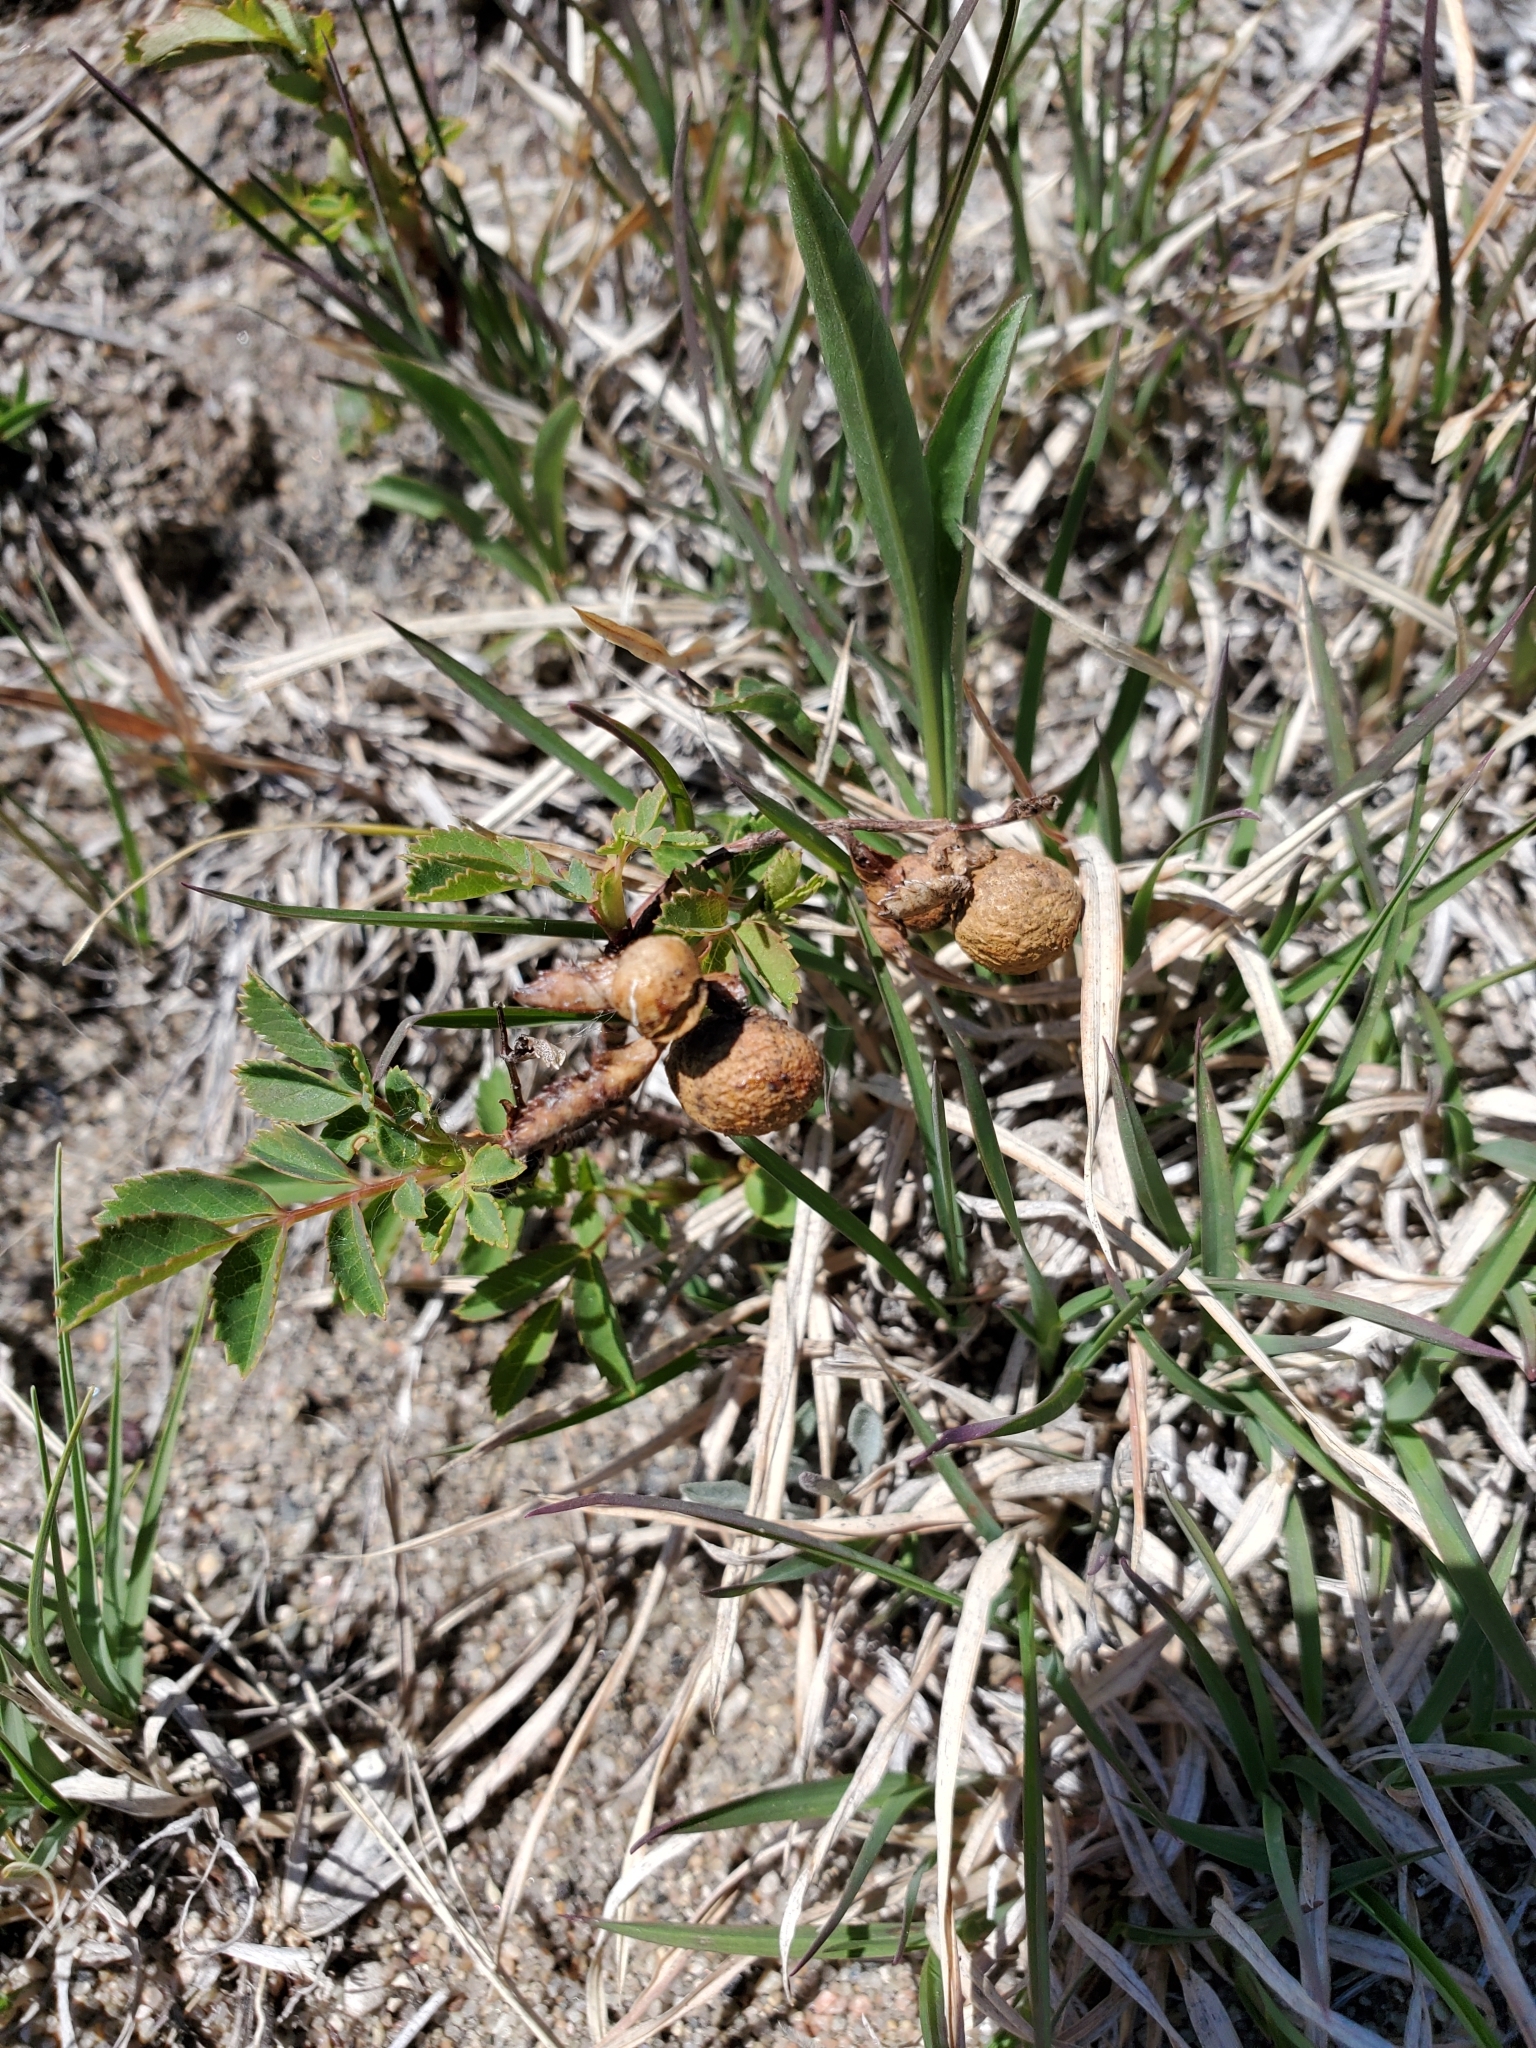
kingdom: Animalia
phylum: Arthropoda
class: Insecta
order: Hymenoptera
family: Cynipidae
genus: Diplolepis
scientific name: Diplolepis ignota
